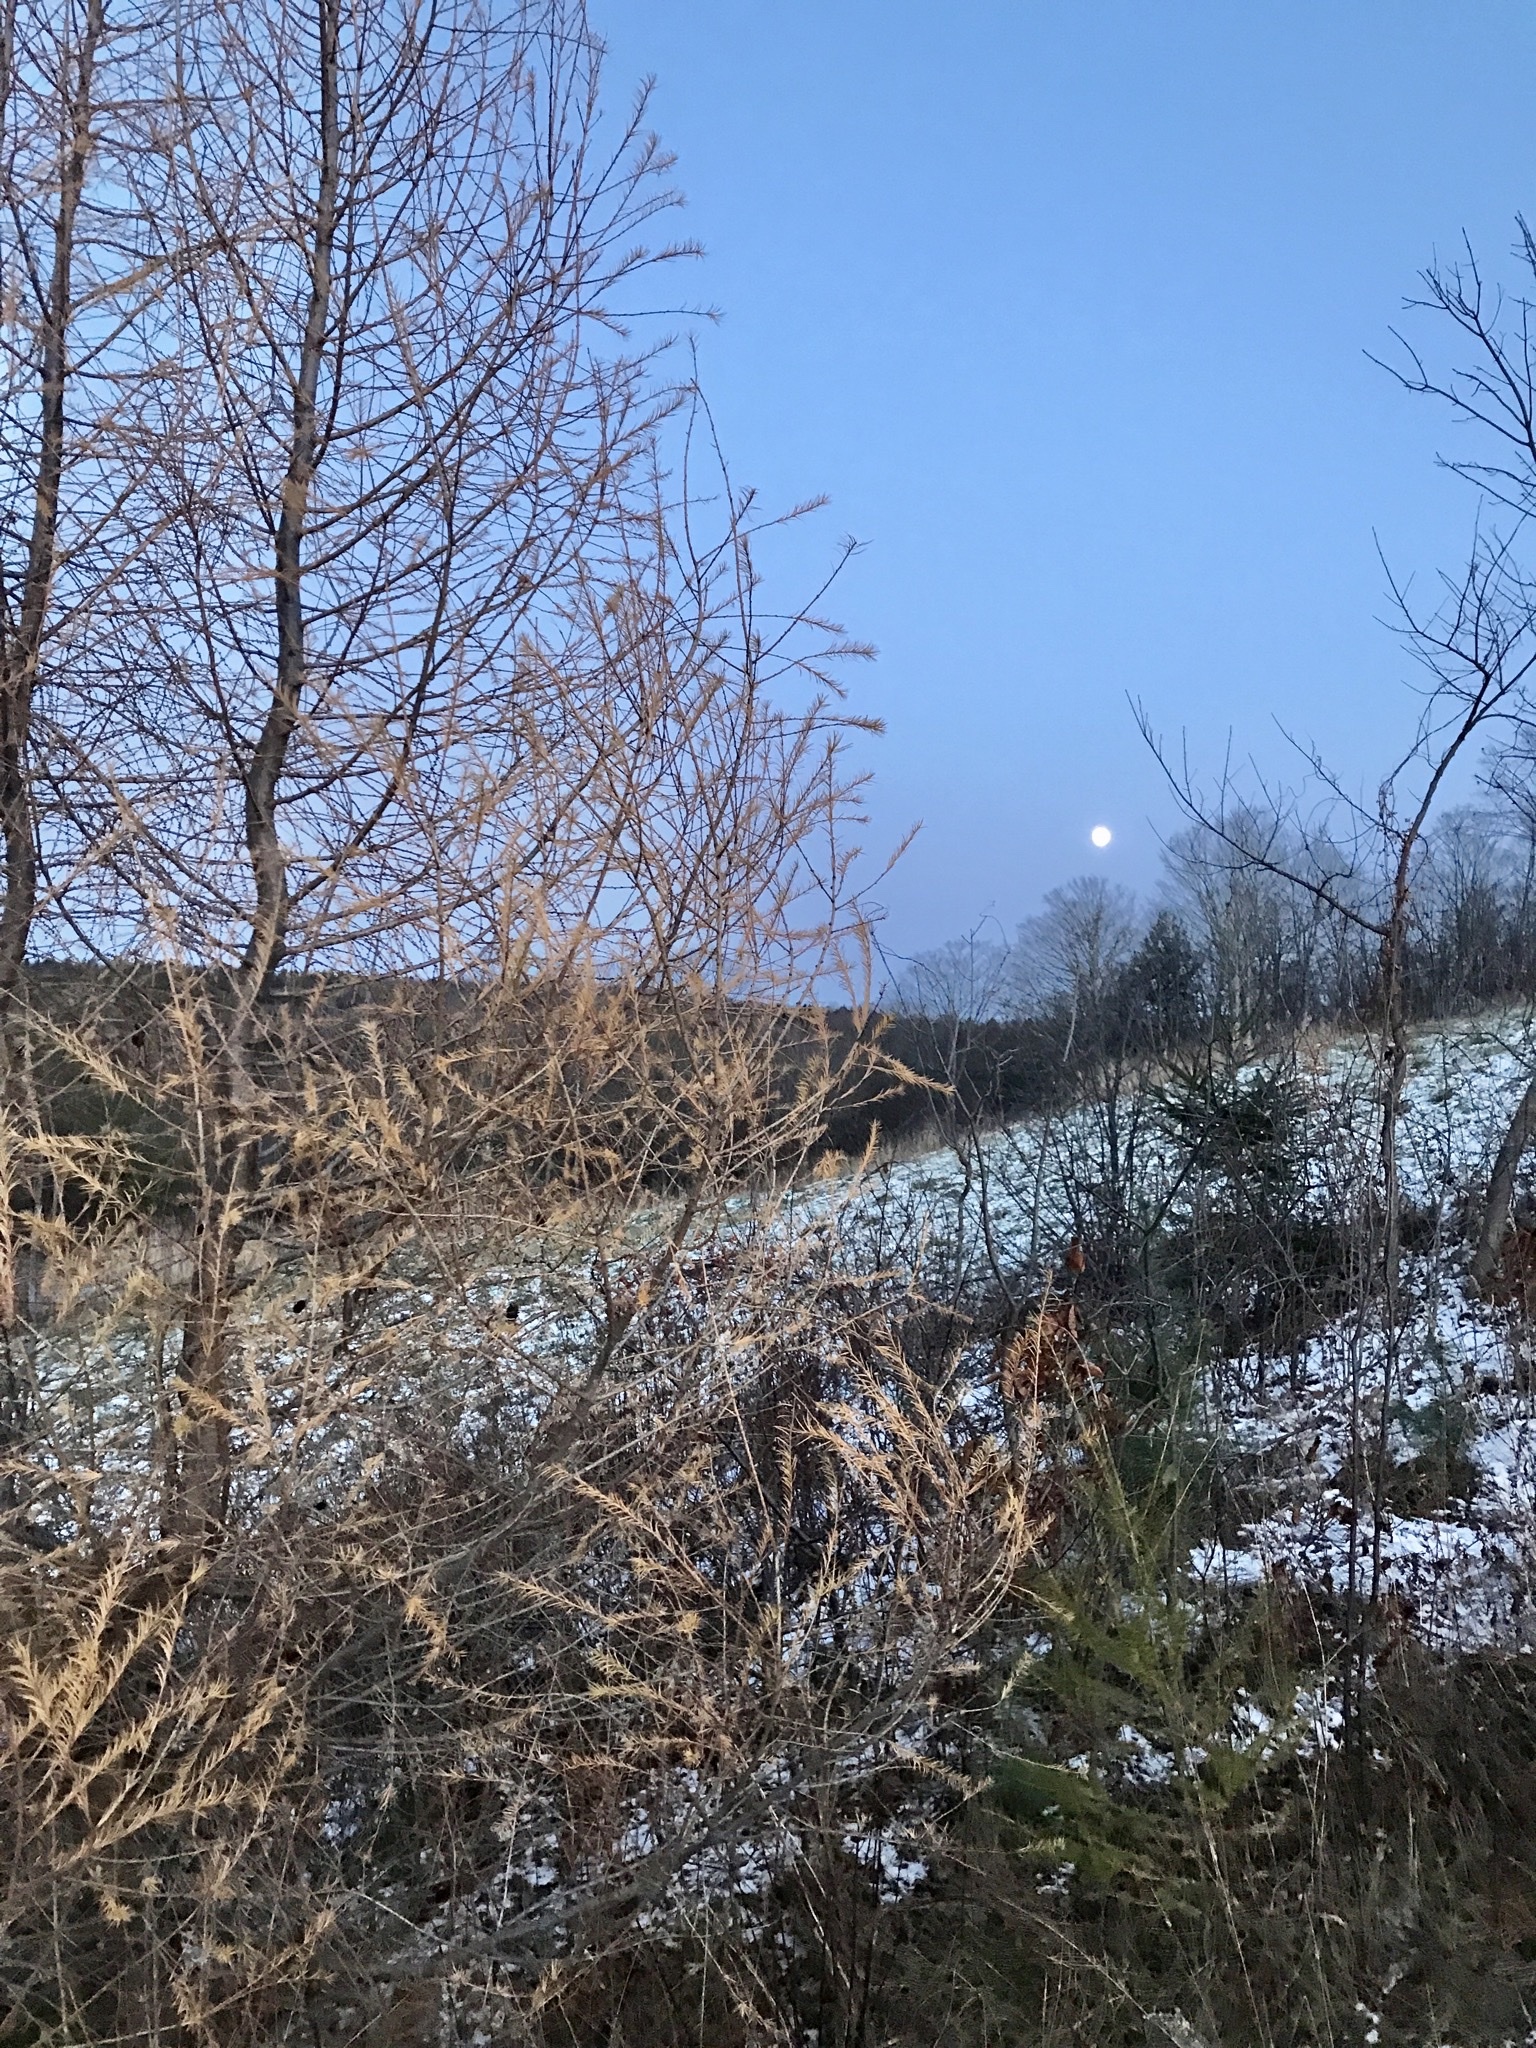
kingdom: Plantae
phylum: Tracheophyta
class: Pinopsida
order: Pinales
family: Pinaceae
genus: Larix
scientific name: Larix decidua
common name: European larch
